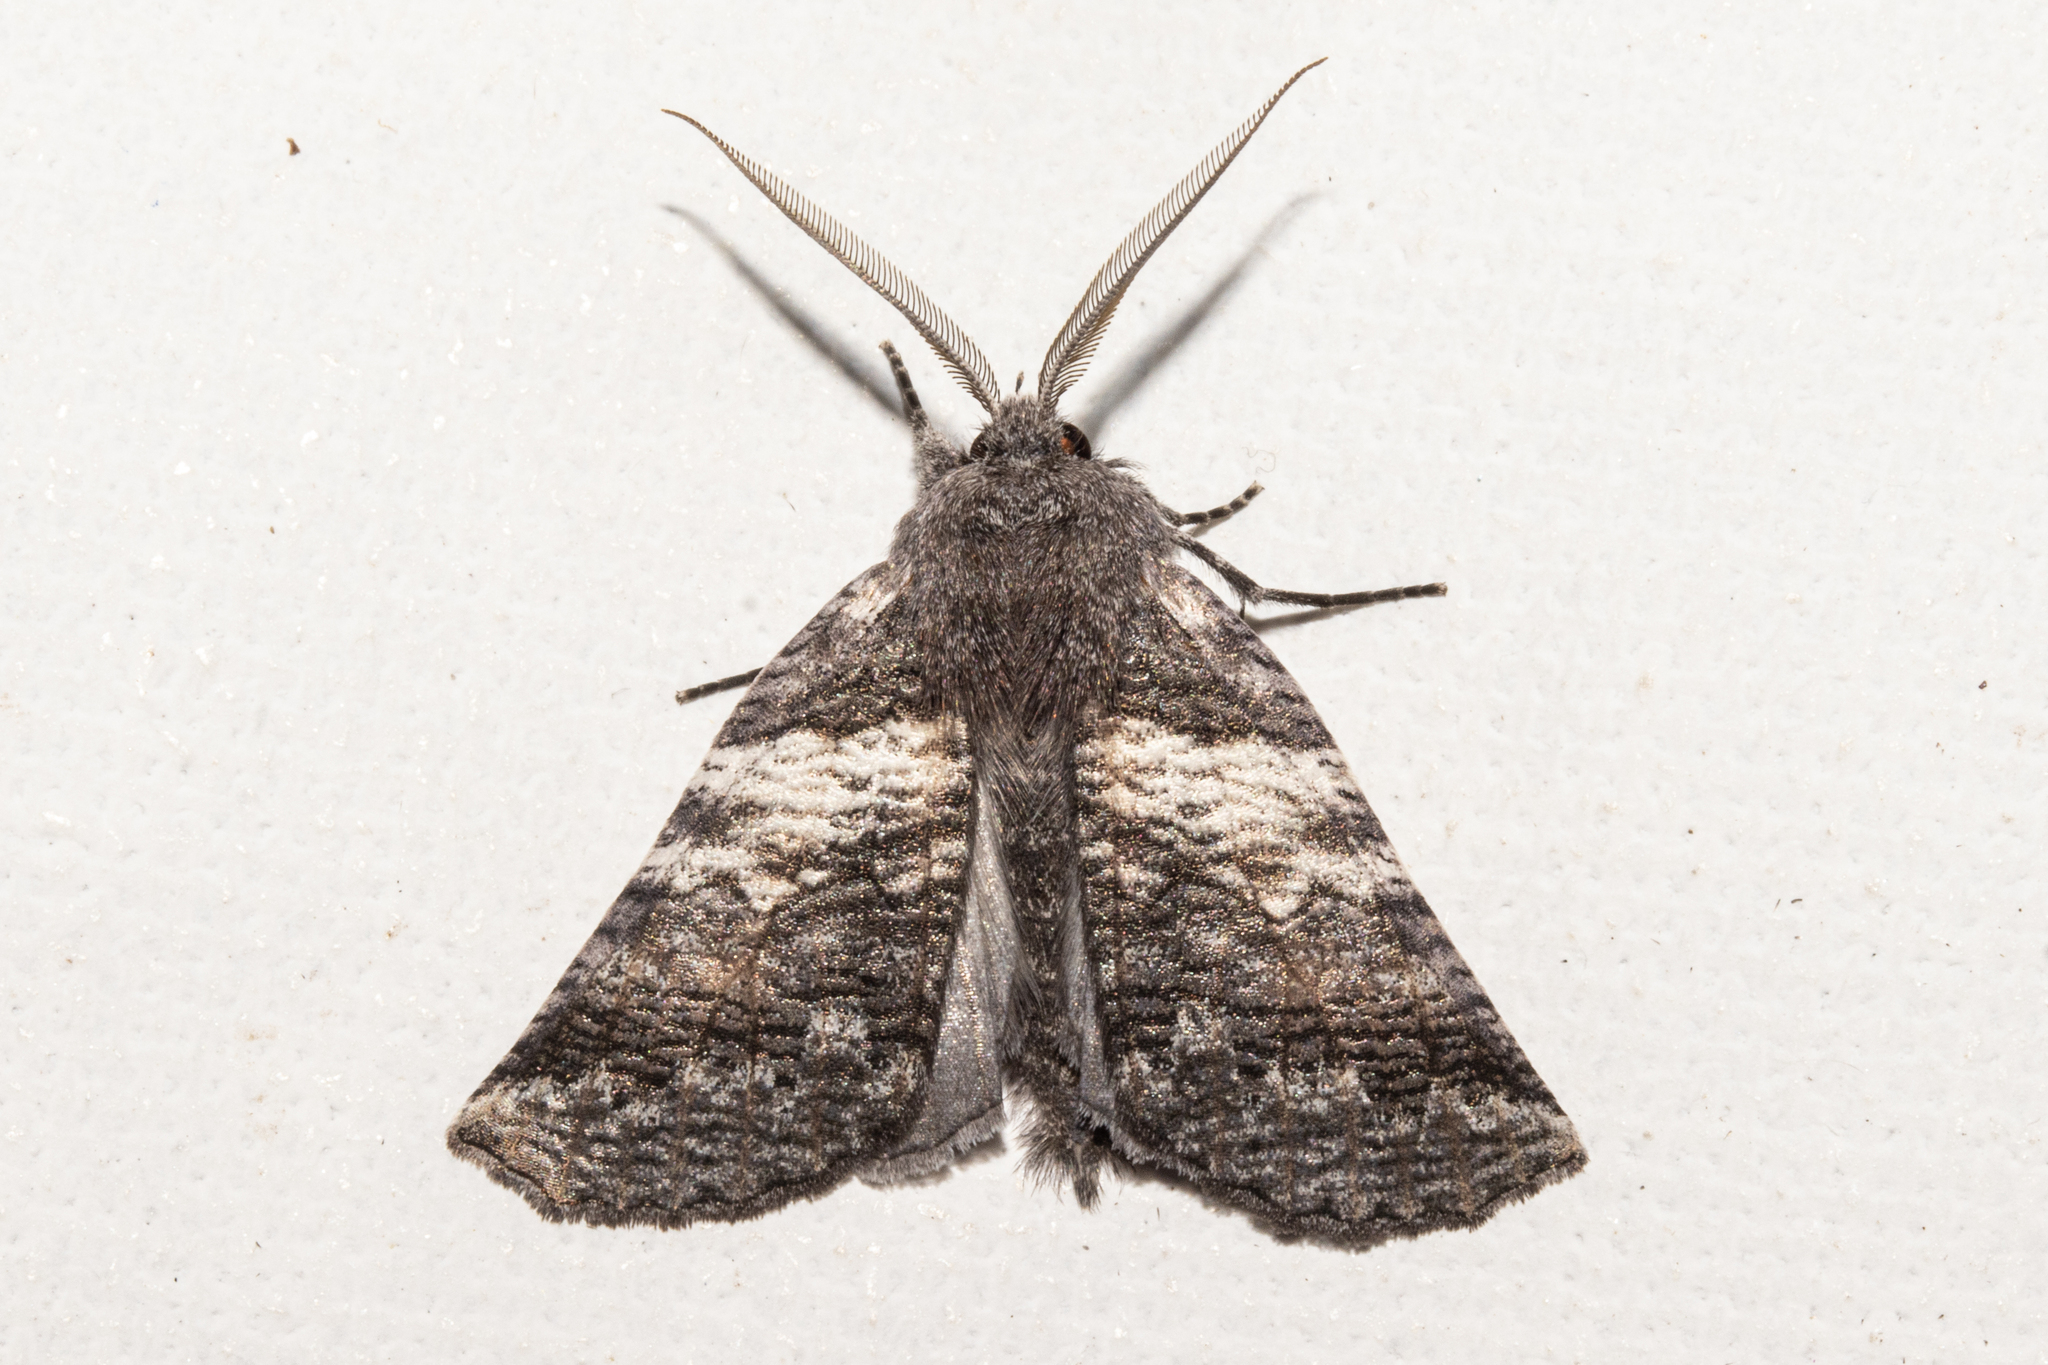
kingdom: Animalia
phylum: Arthropoda
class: Insecta
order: Lepidoptera
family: Geometridae
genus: Declana
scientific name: Declana
